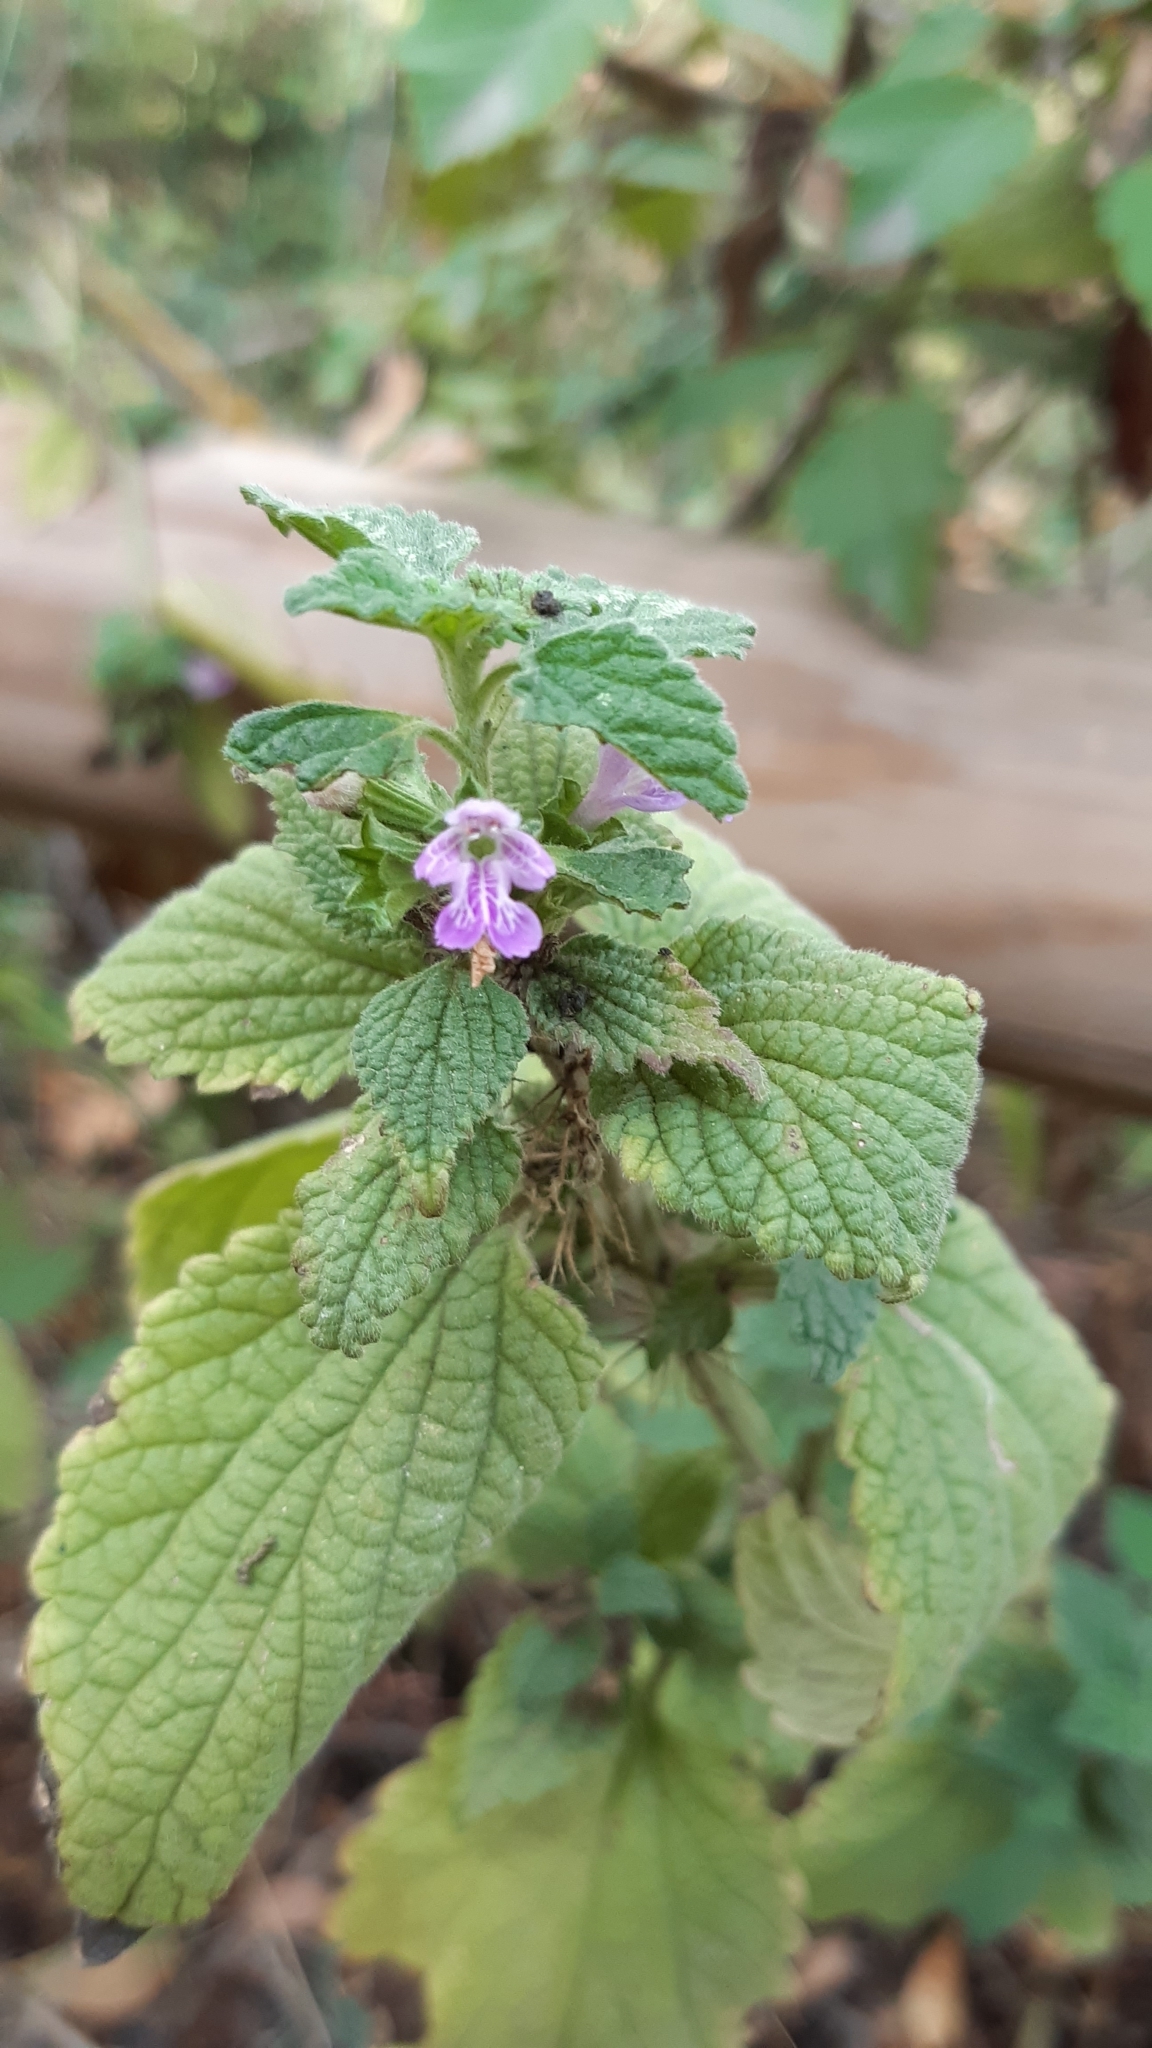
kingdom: Plantae
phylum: Tracheophyta
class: Magnoliopsida
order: Lamiales
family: Lamiaceae
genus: Ballota
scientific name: Ballota nigra
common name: Black horehound
